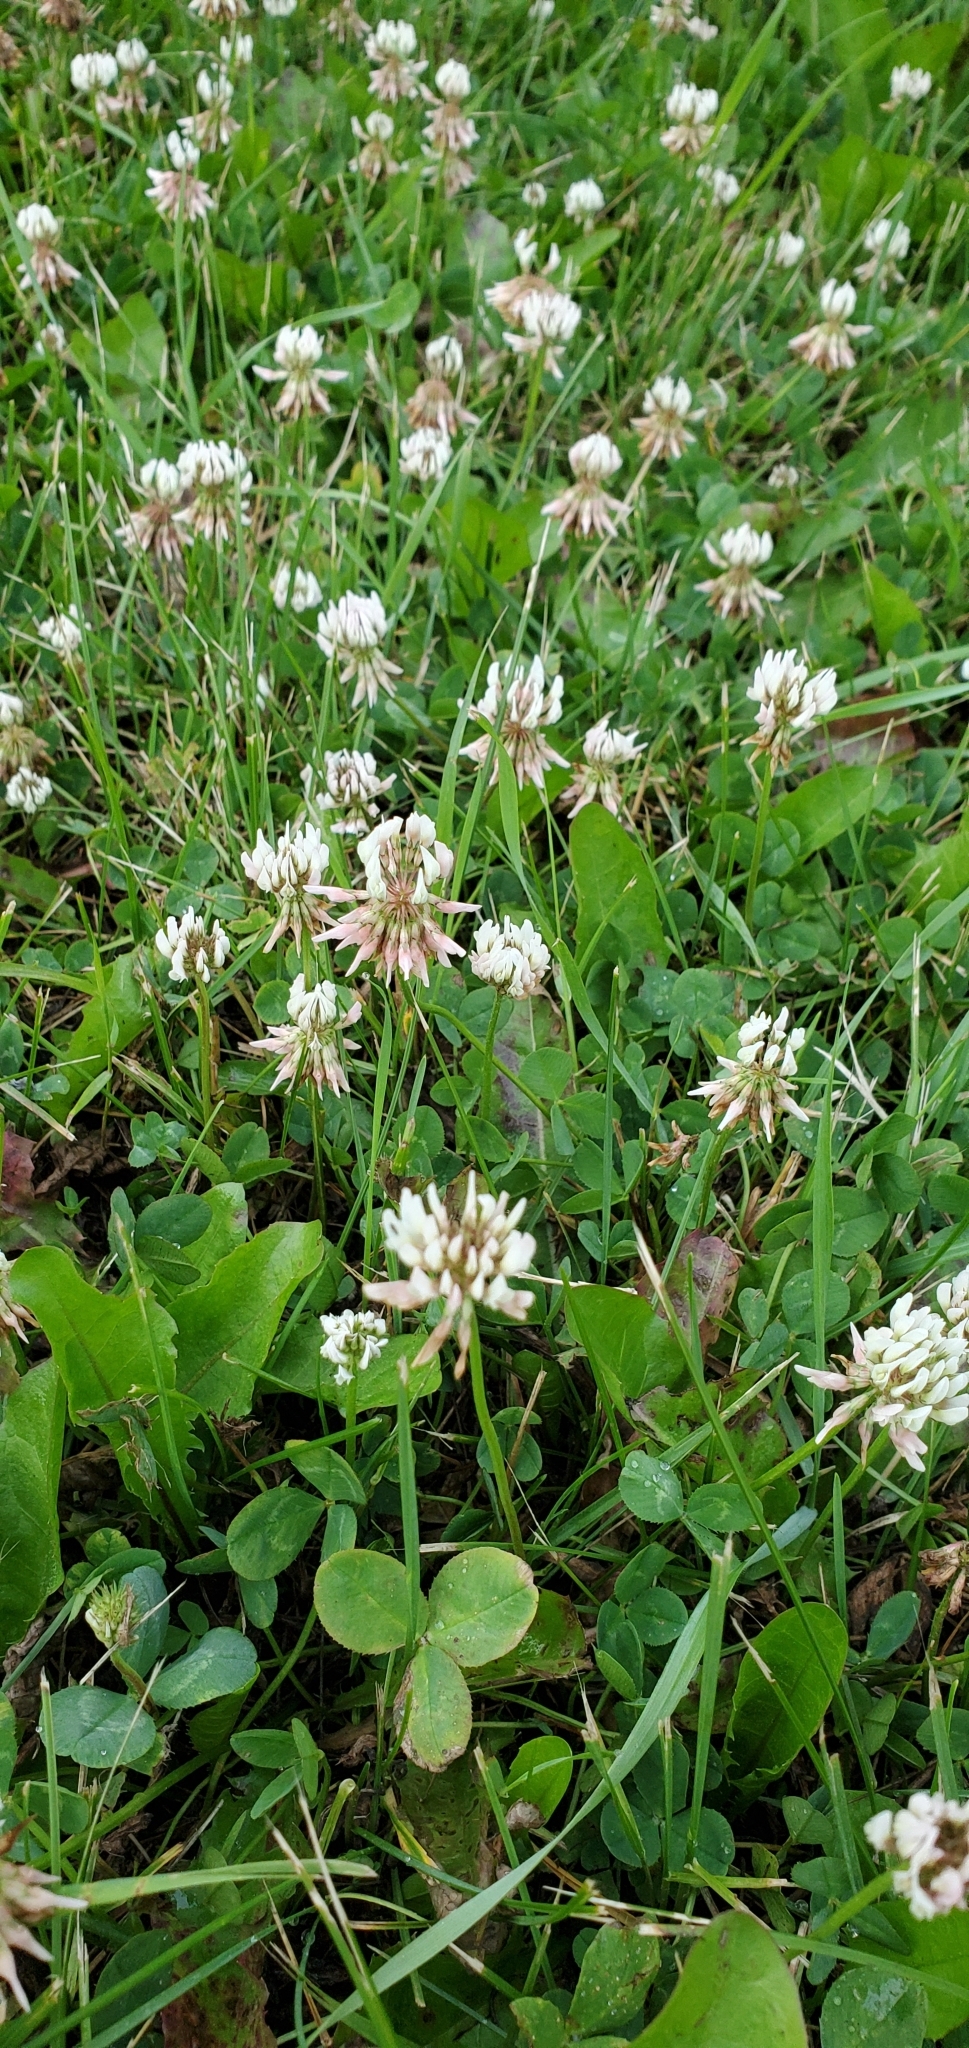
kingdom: Plantae
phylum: Tracheophyta
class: Magnoliopsida
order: Fabales
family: Fabaceae
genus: Trifolium
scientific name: Trifolium repens
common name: White clover
